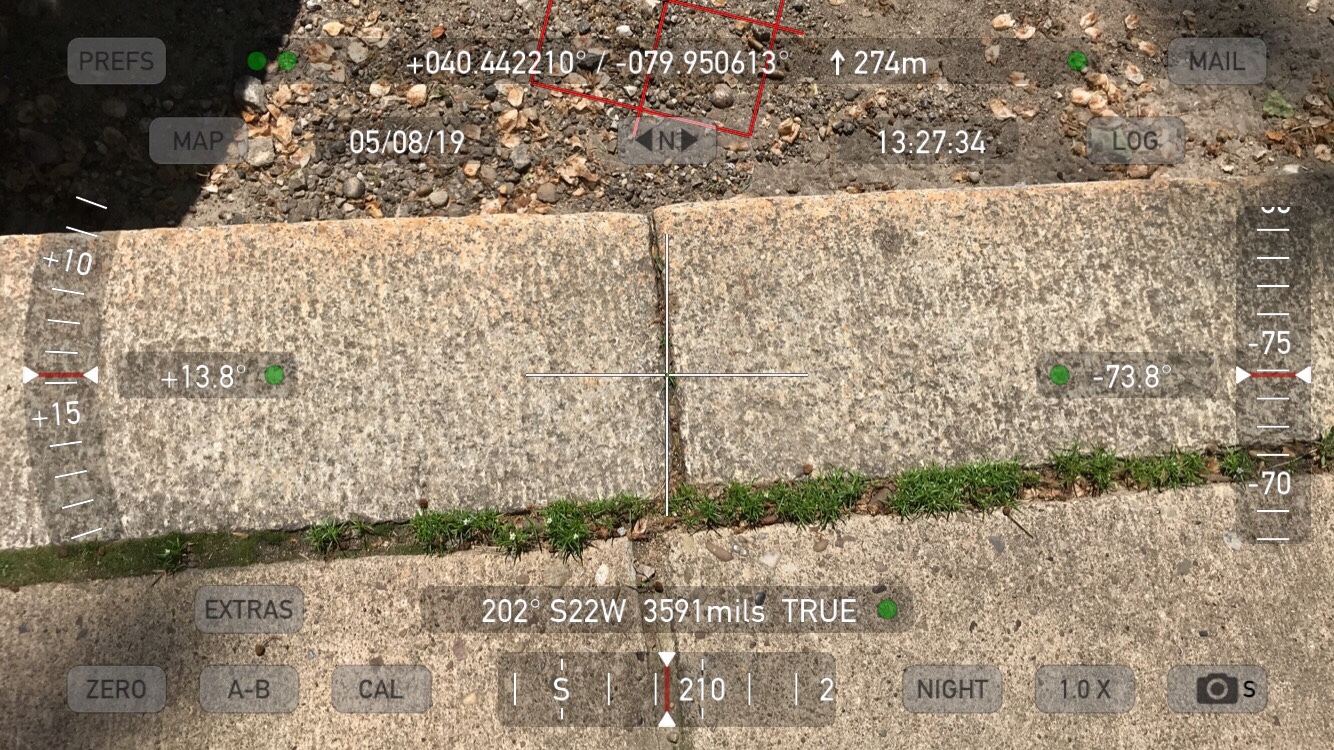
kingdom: Plantae
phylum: Tracheophyta
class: Magnoliopsida
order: Caryophyllales
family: Caryophyllaceae
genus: Sagina
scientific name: Sagina procumbens
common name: Procumbent pearlwort
